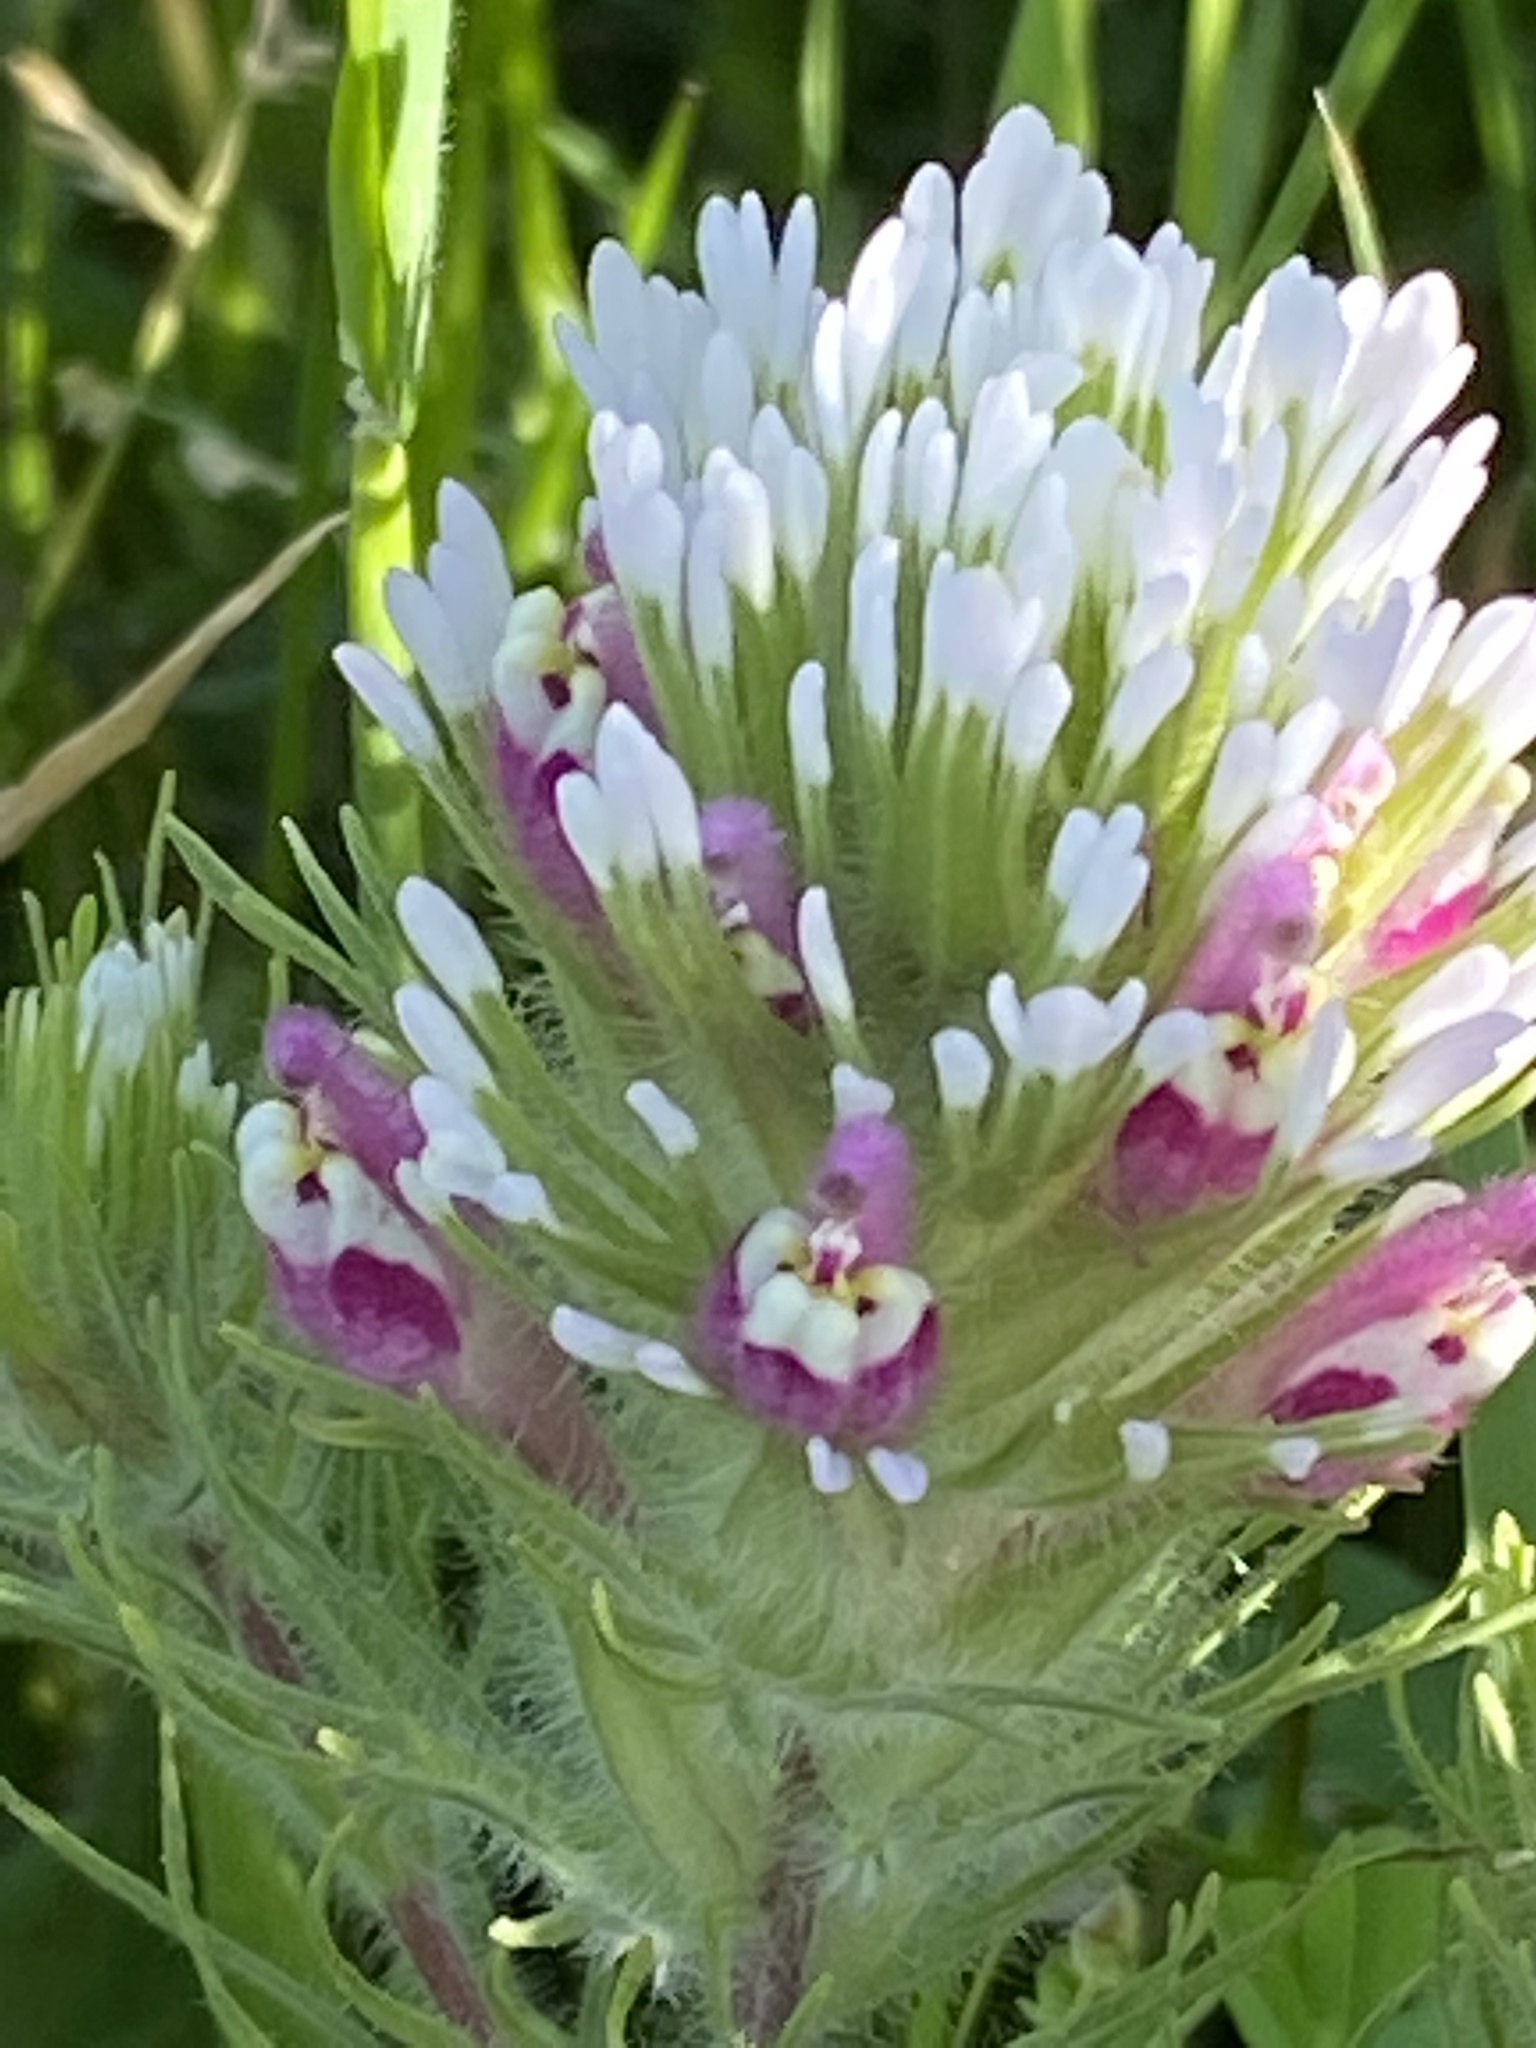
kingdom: Plantae
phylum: Tracheophyta
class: Magnoliopsida
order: Lamiales
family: Orobanchaceae
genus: Castilleja
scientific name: Castilleja exserta
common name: Purple owl-clover
